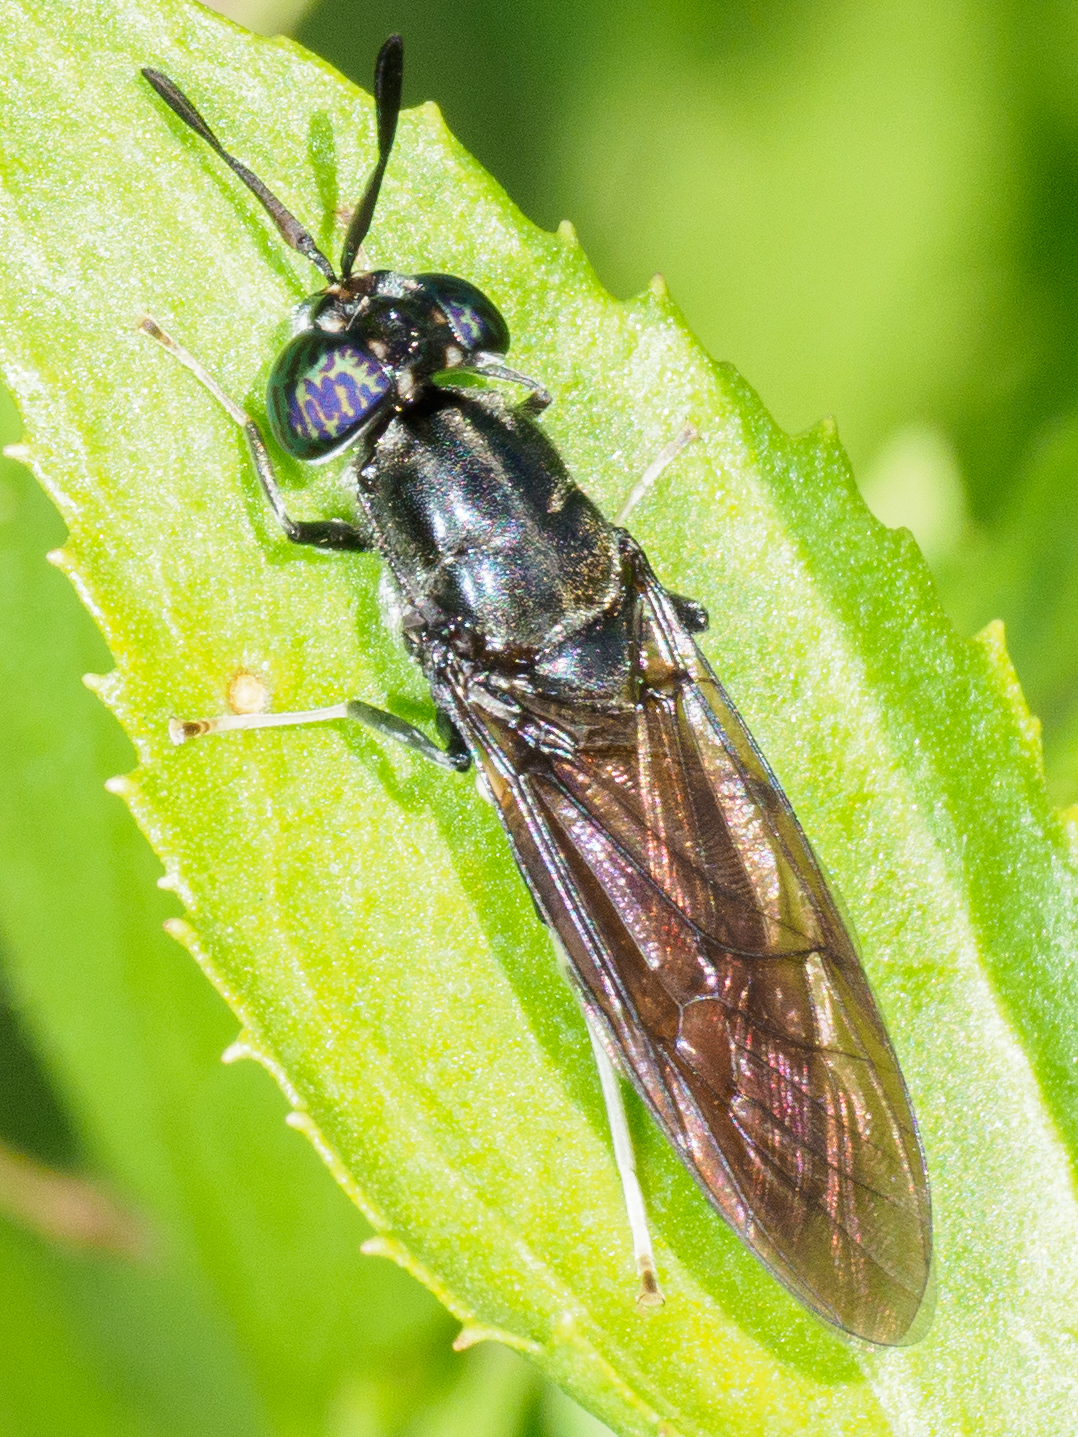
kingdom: Animalia
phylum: Arthropoda
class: Insecta
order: Diptera
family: Stratiomyidae
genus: Hermetia
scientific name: Hermetia illucens
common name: Black soldier fly
